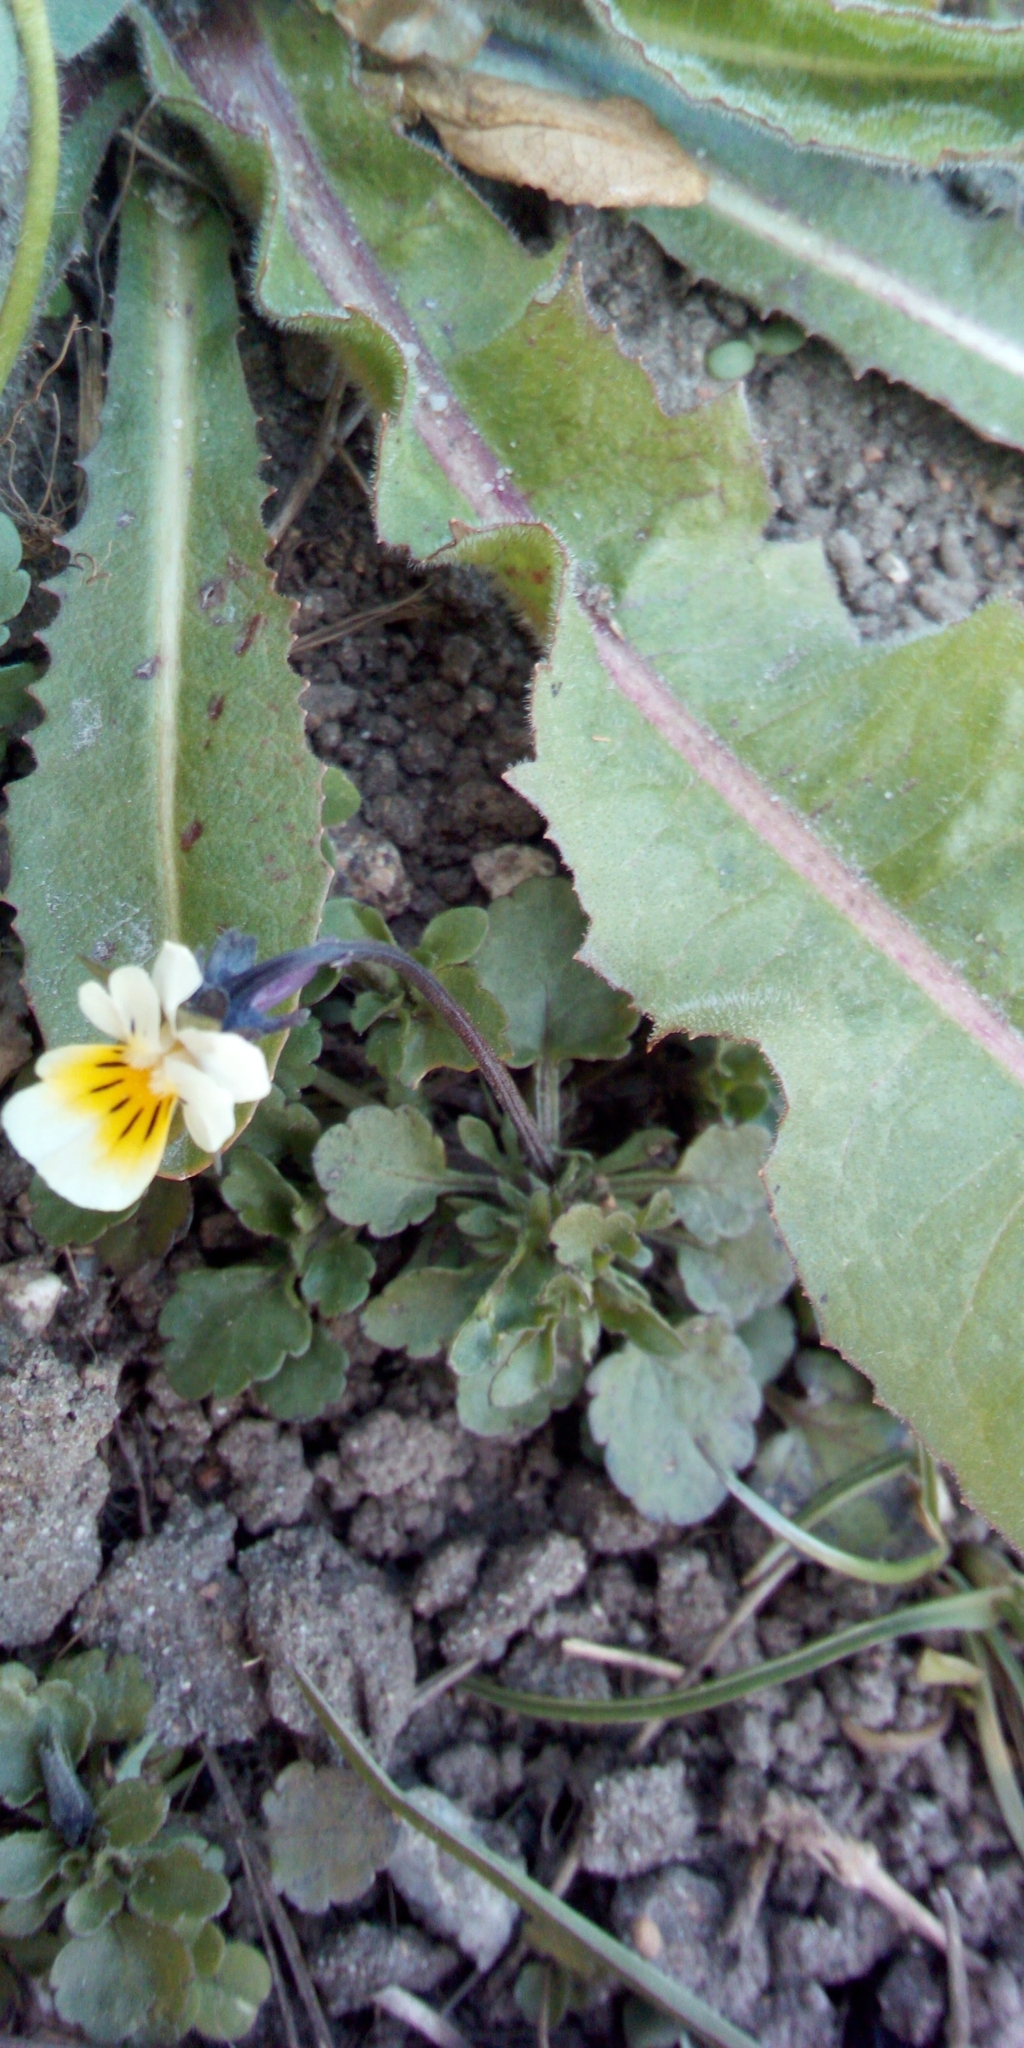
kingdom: Plantae
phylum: Tracheophyta
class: Magnoliopsida
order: Malpighiales
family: Violaceae
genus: Viola
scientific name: Viola arvensis
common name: Field pansy
